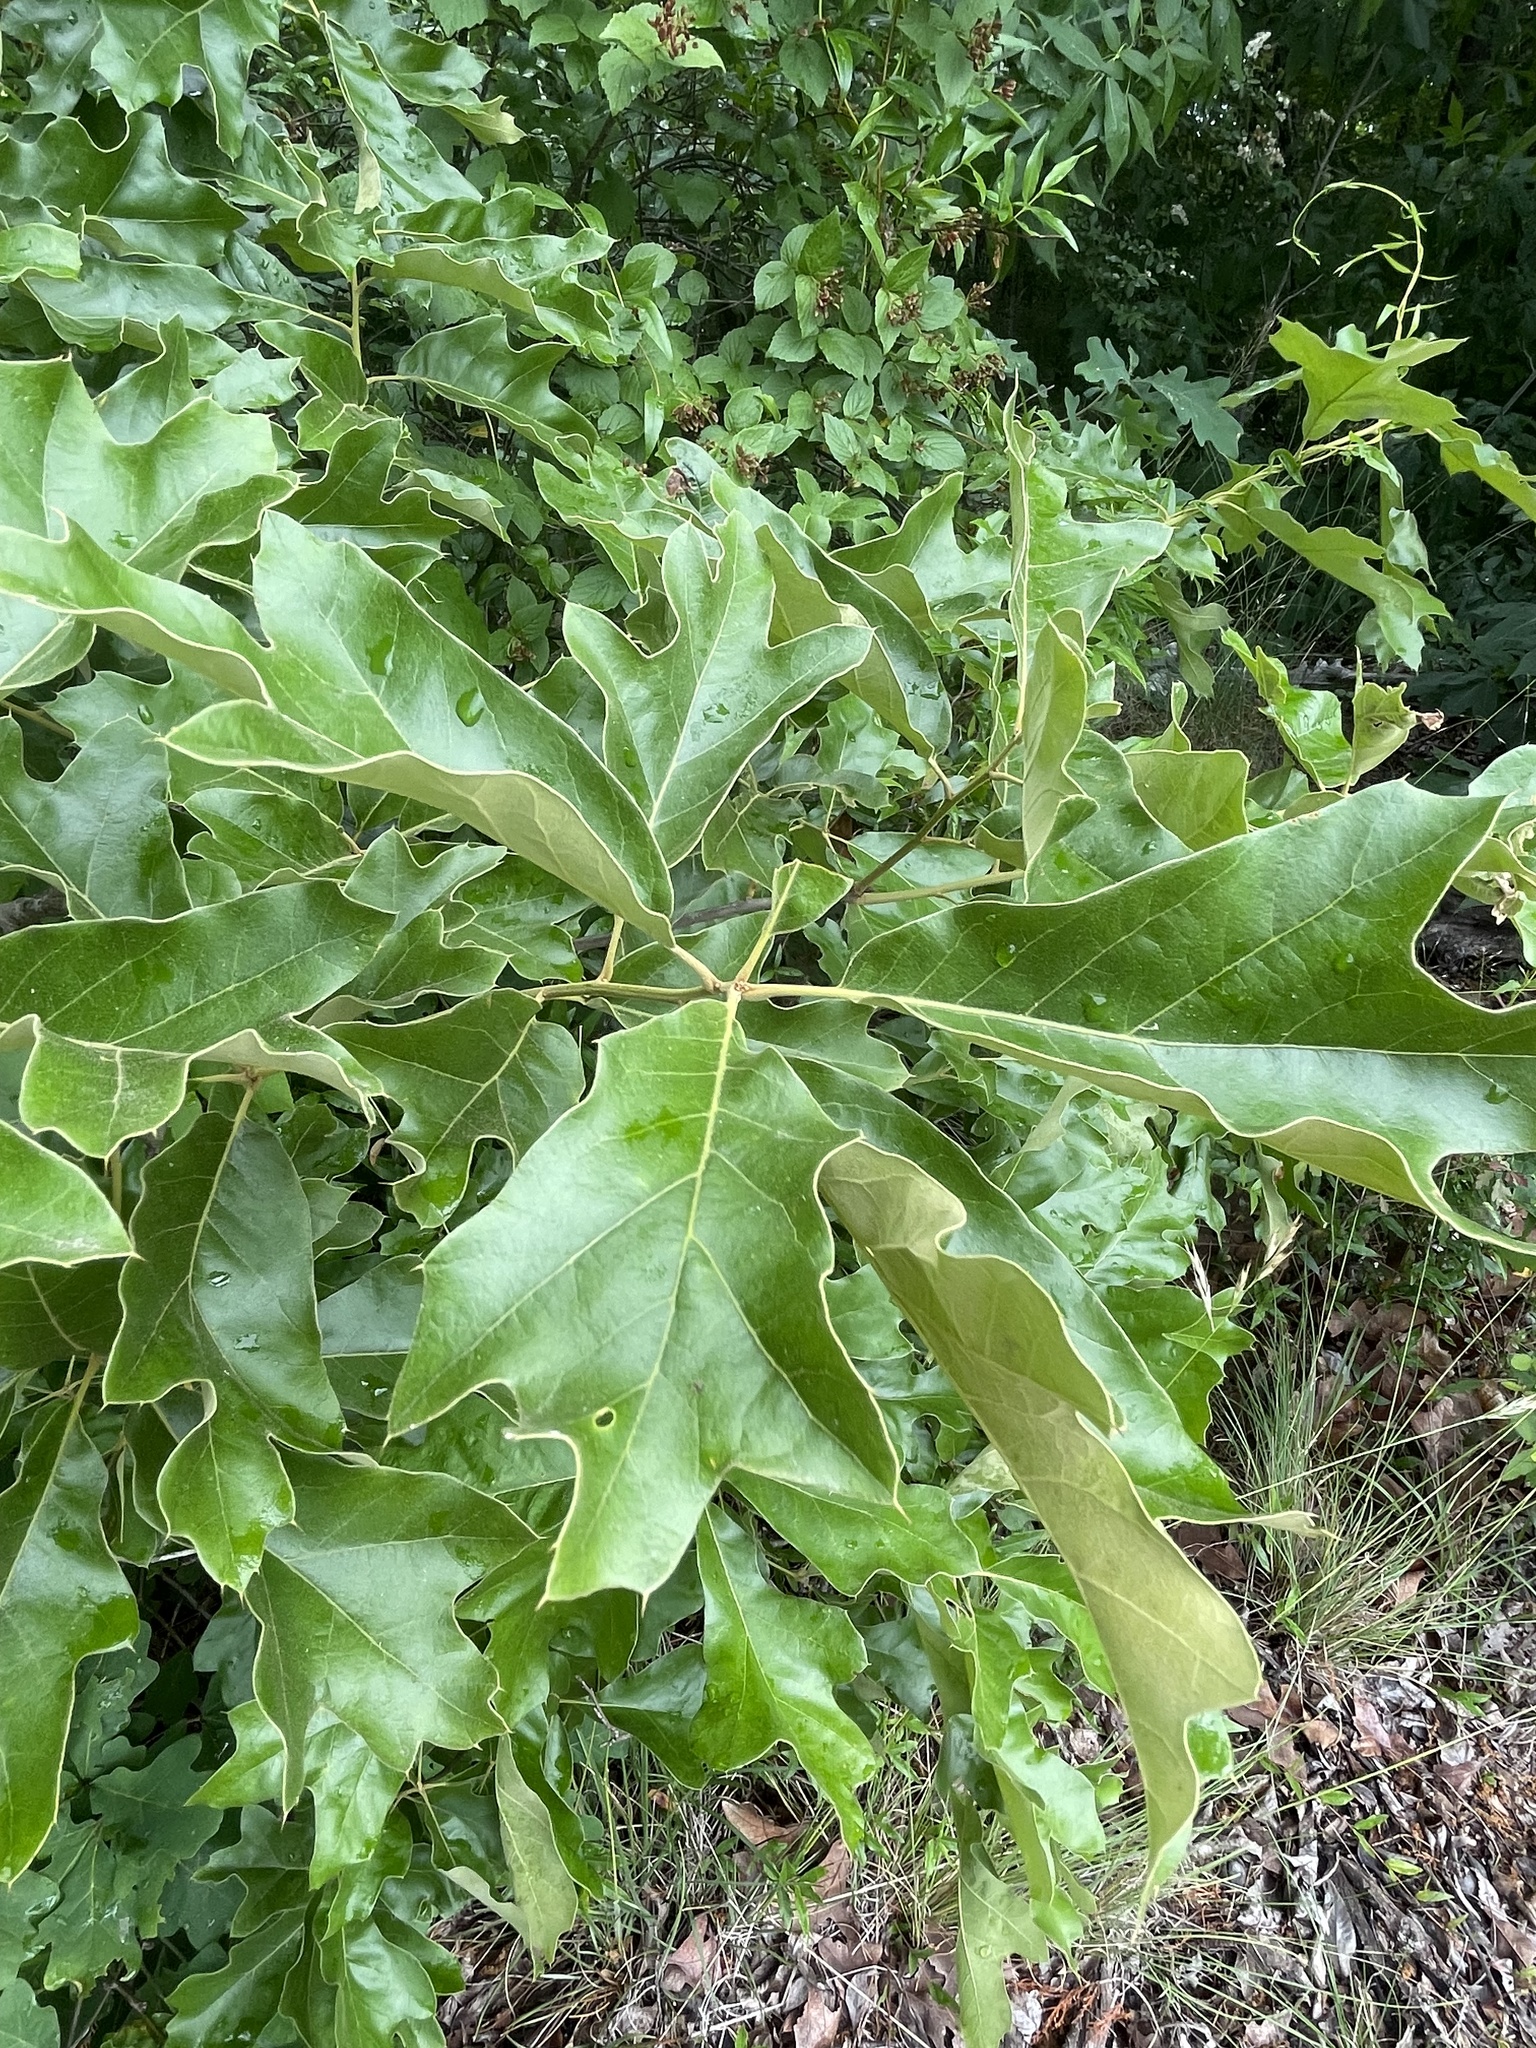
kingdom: Plantae
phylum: Tracheophyta
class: Magnoliopsida
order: Fagales
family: Fagaceae
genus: Quercus
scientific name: Quercus falcata
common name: Southern red oak
